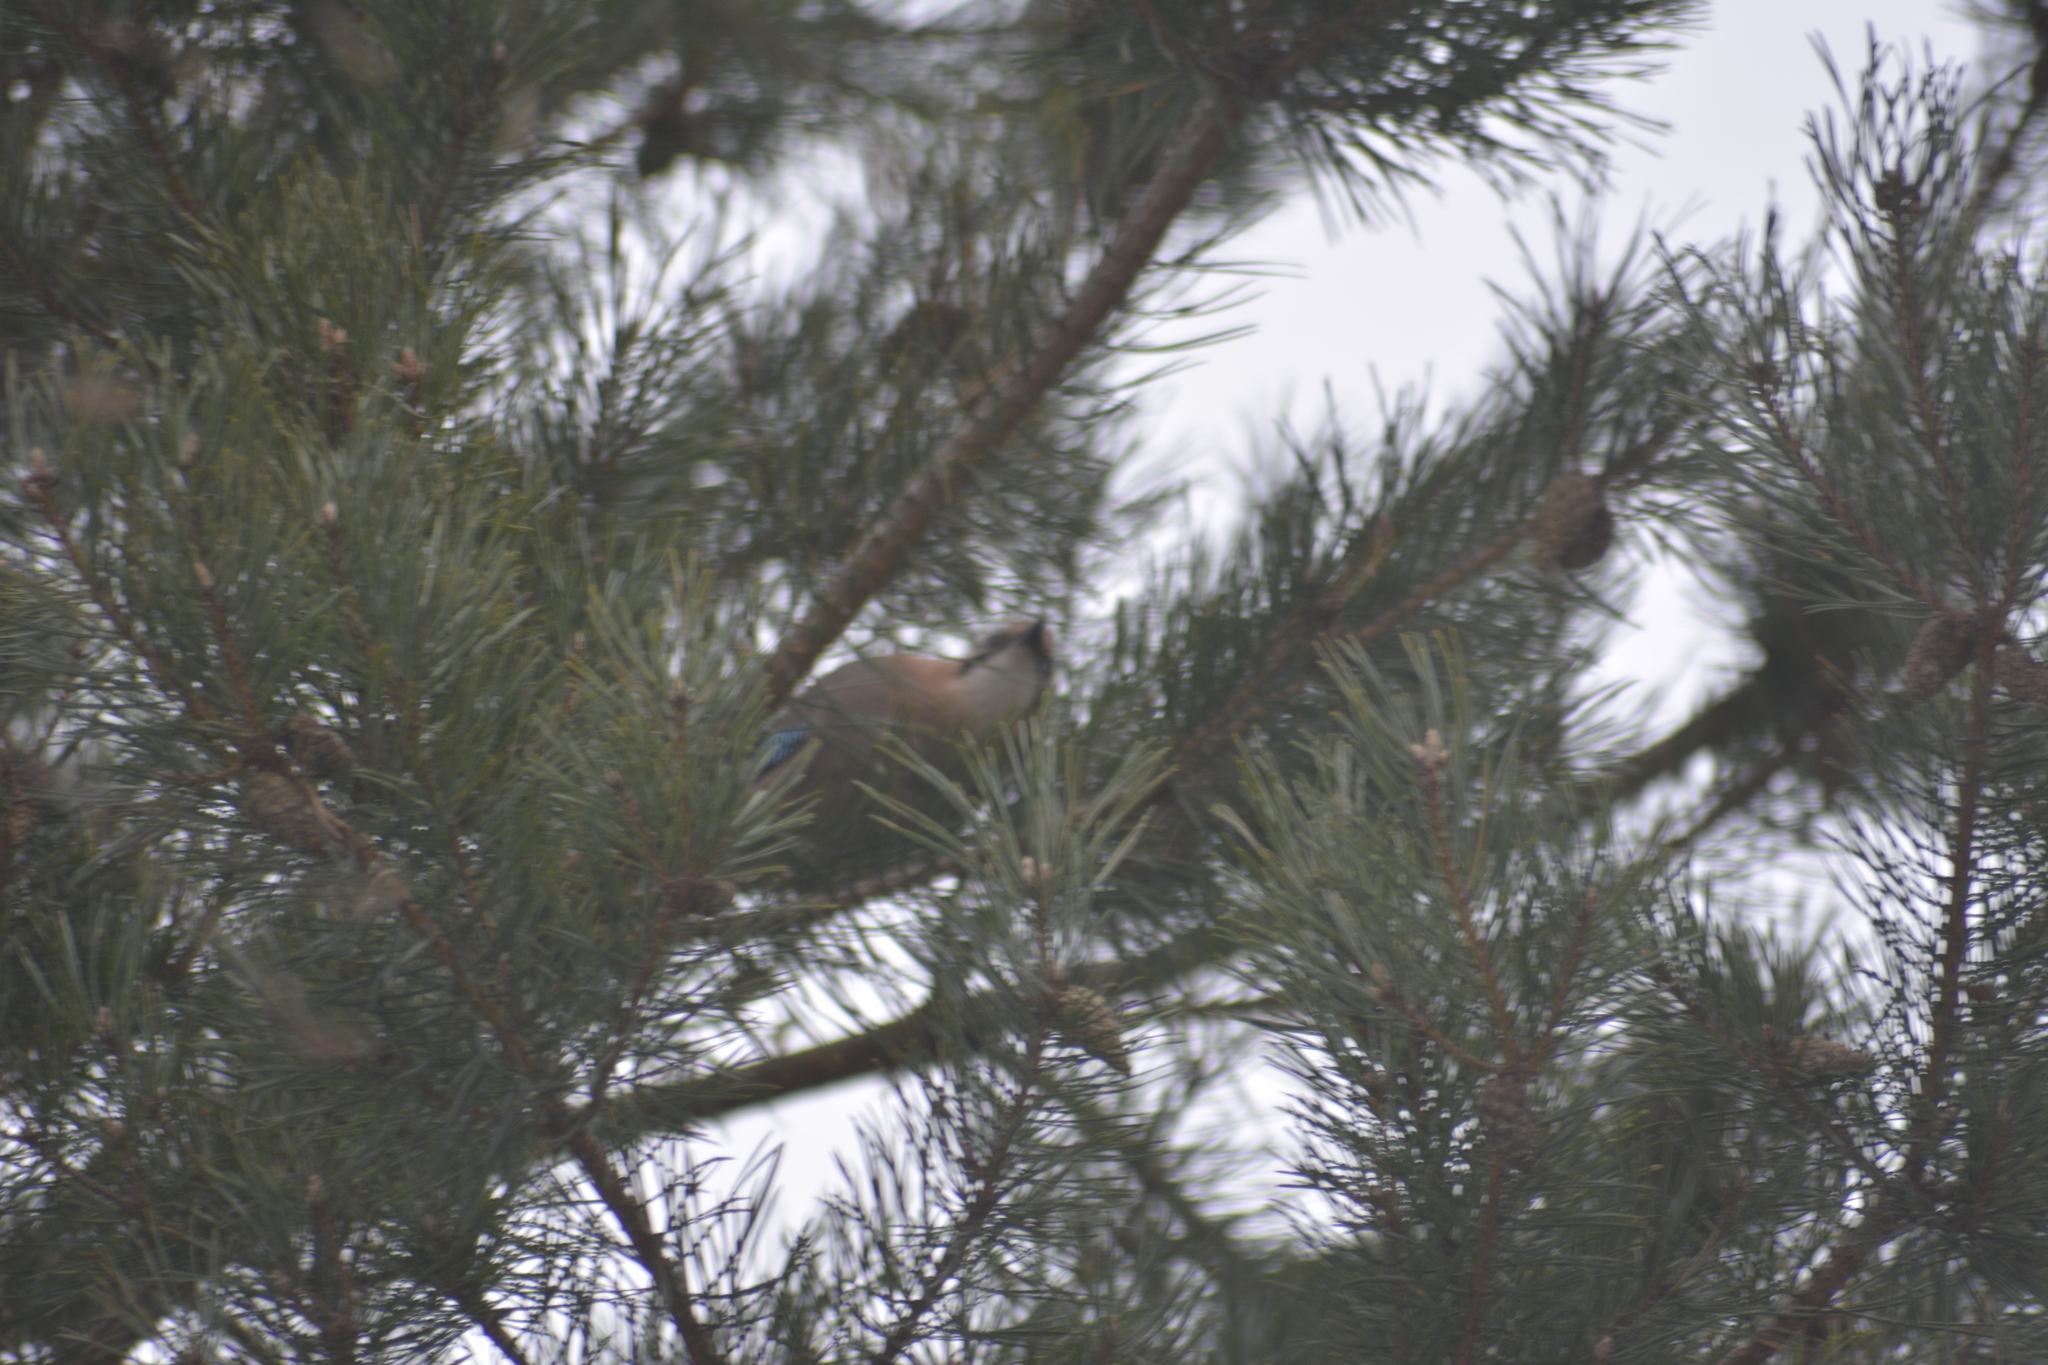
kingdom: Animalia
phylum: Chordata
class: Aves
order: Passeriformes
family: Corvidae
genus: Garrulus
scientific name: Garrulus glandarius
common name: Eurasian jay
